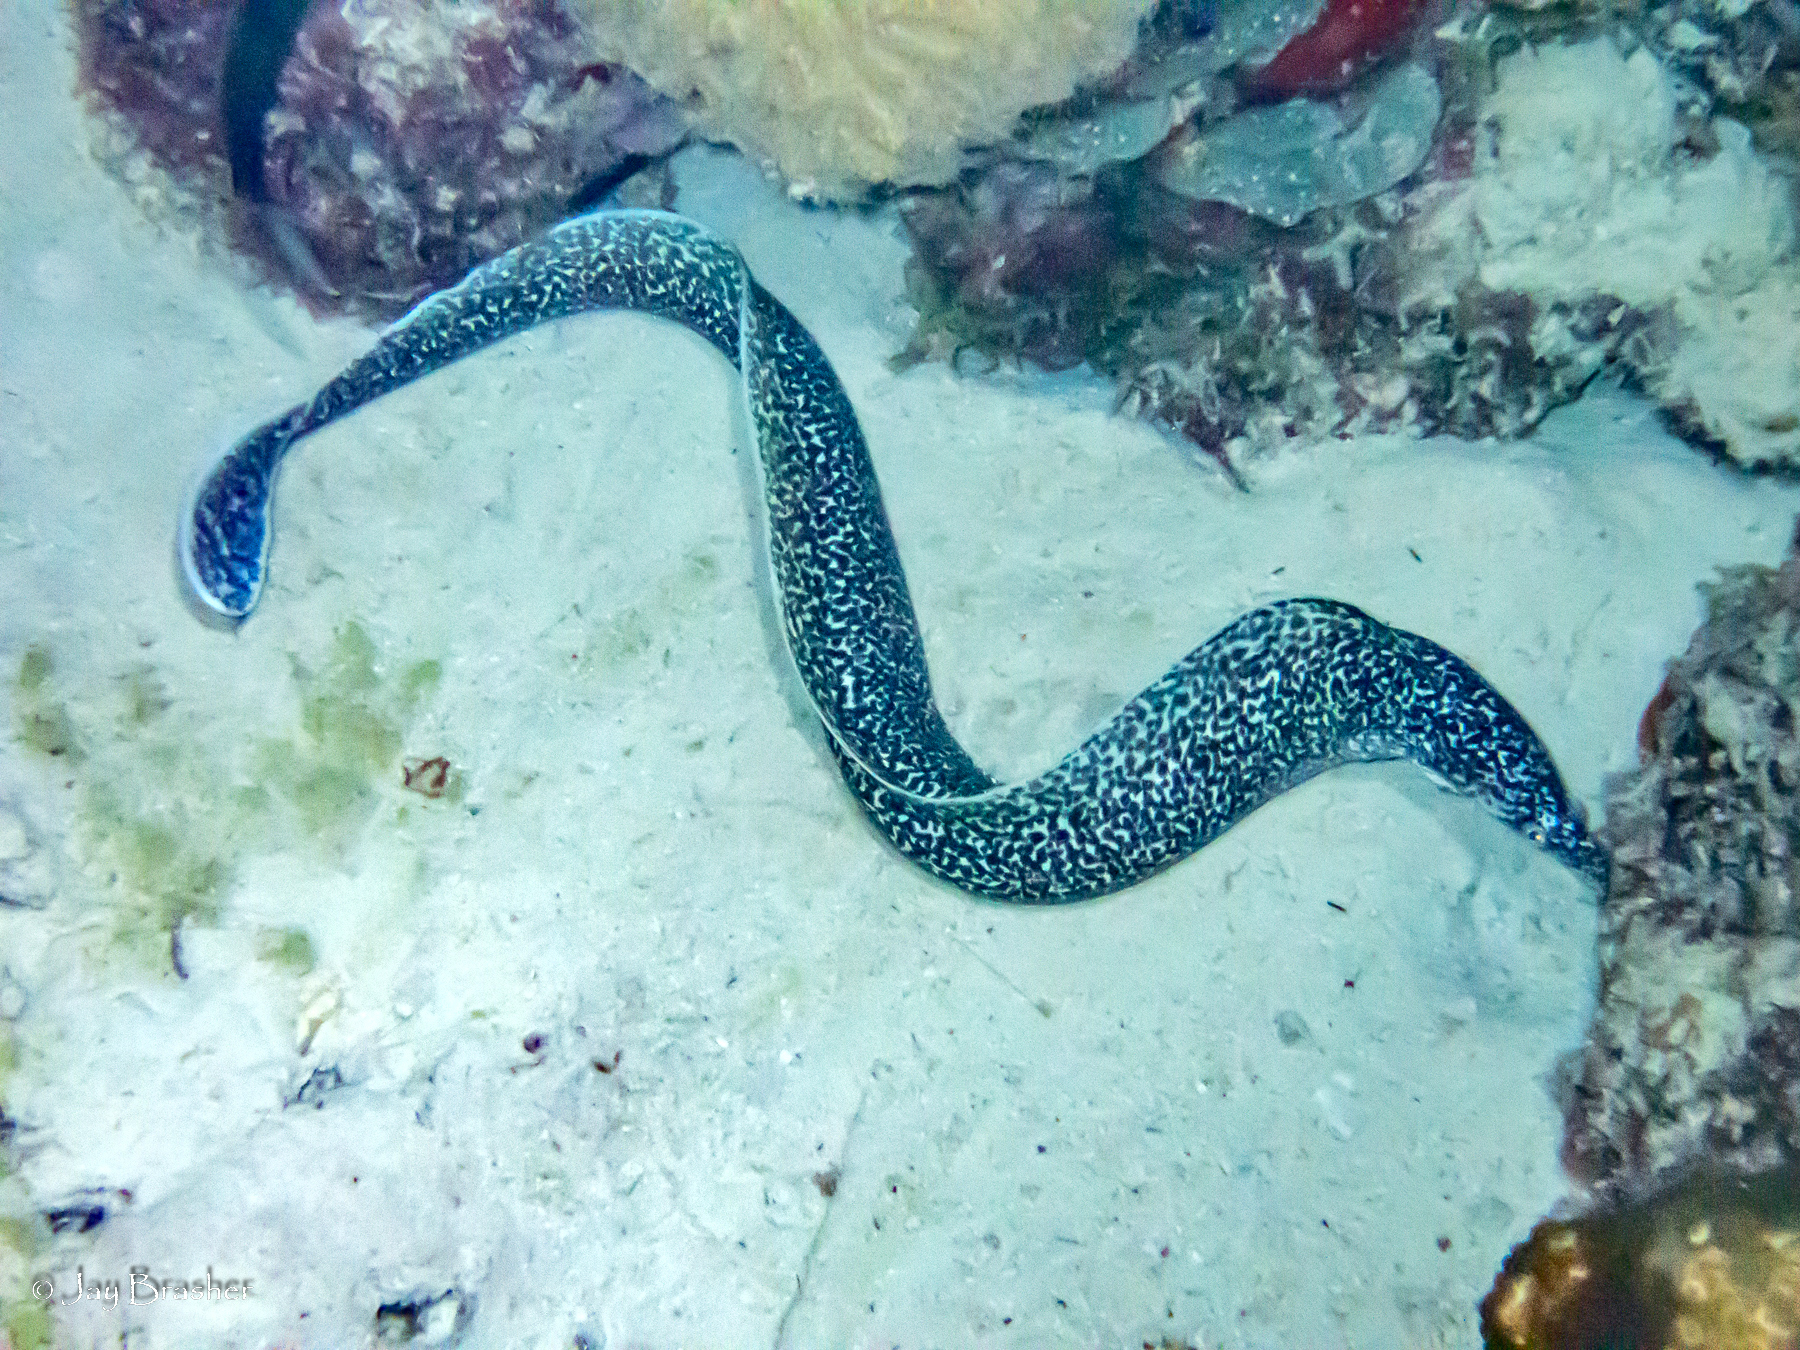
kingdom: Animalia
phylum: Chordata
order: Anguilliformes
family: Muraenidae
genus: Gymnothorax
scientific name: Gymnothorax moringa
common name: Spotted moray
